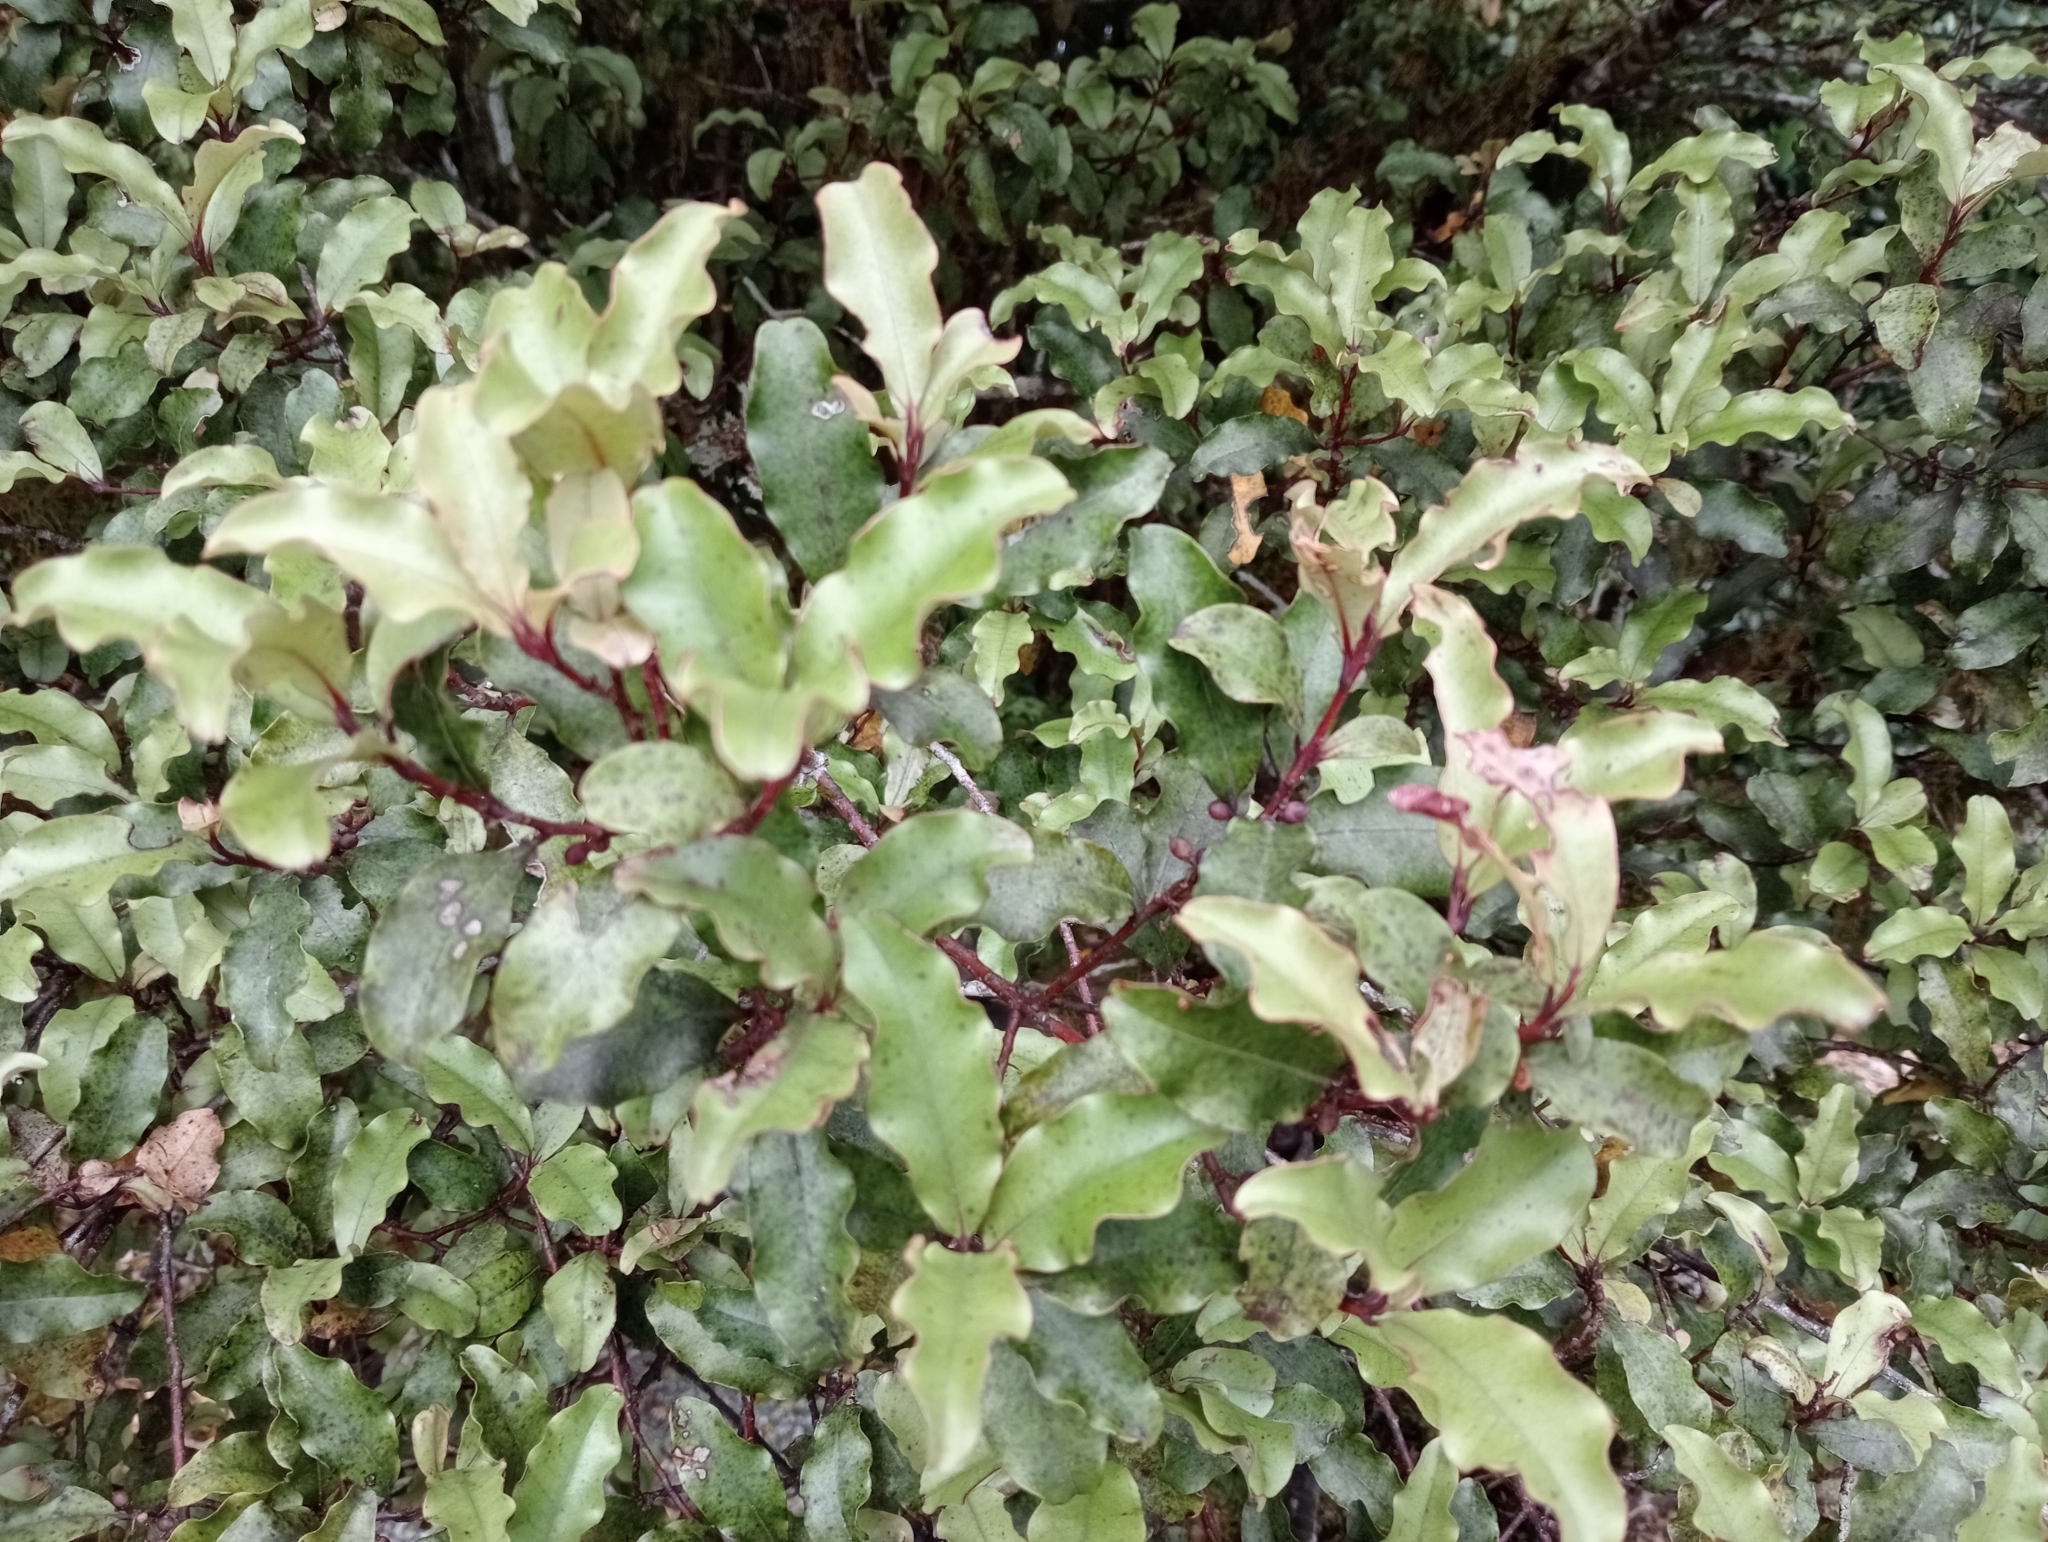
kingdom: Plantae
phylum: Tracheophyta
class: Magnoliopsida
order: Ericales
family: Primulaceae
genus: Myrsine
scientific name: Myrsine australis
